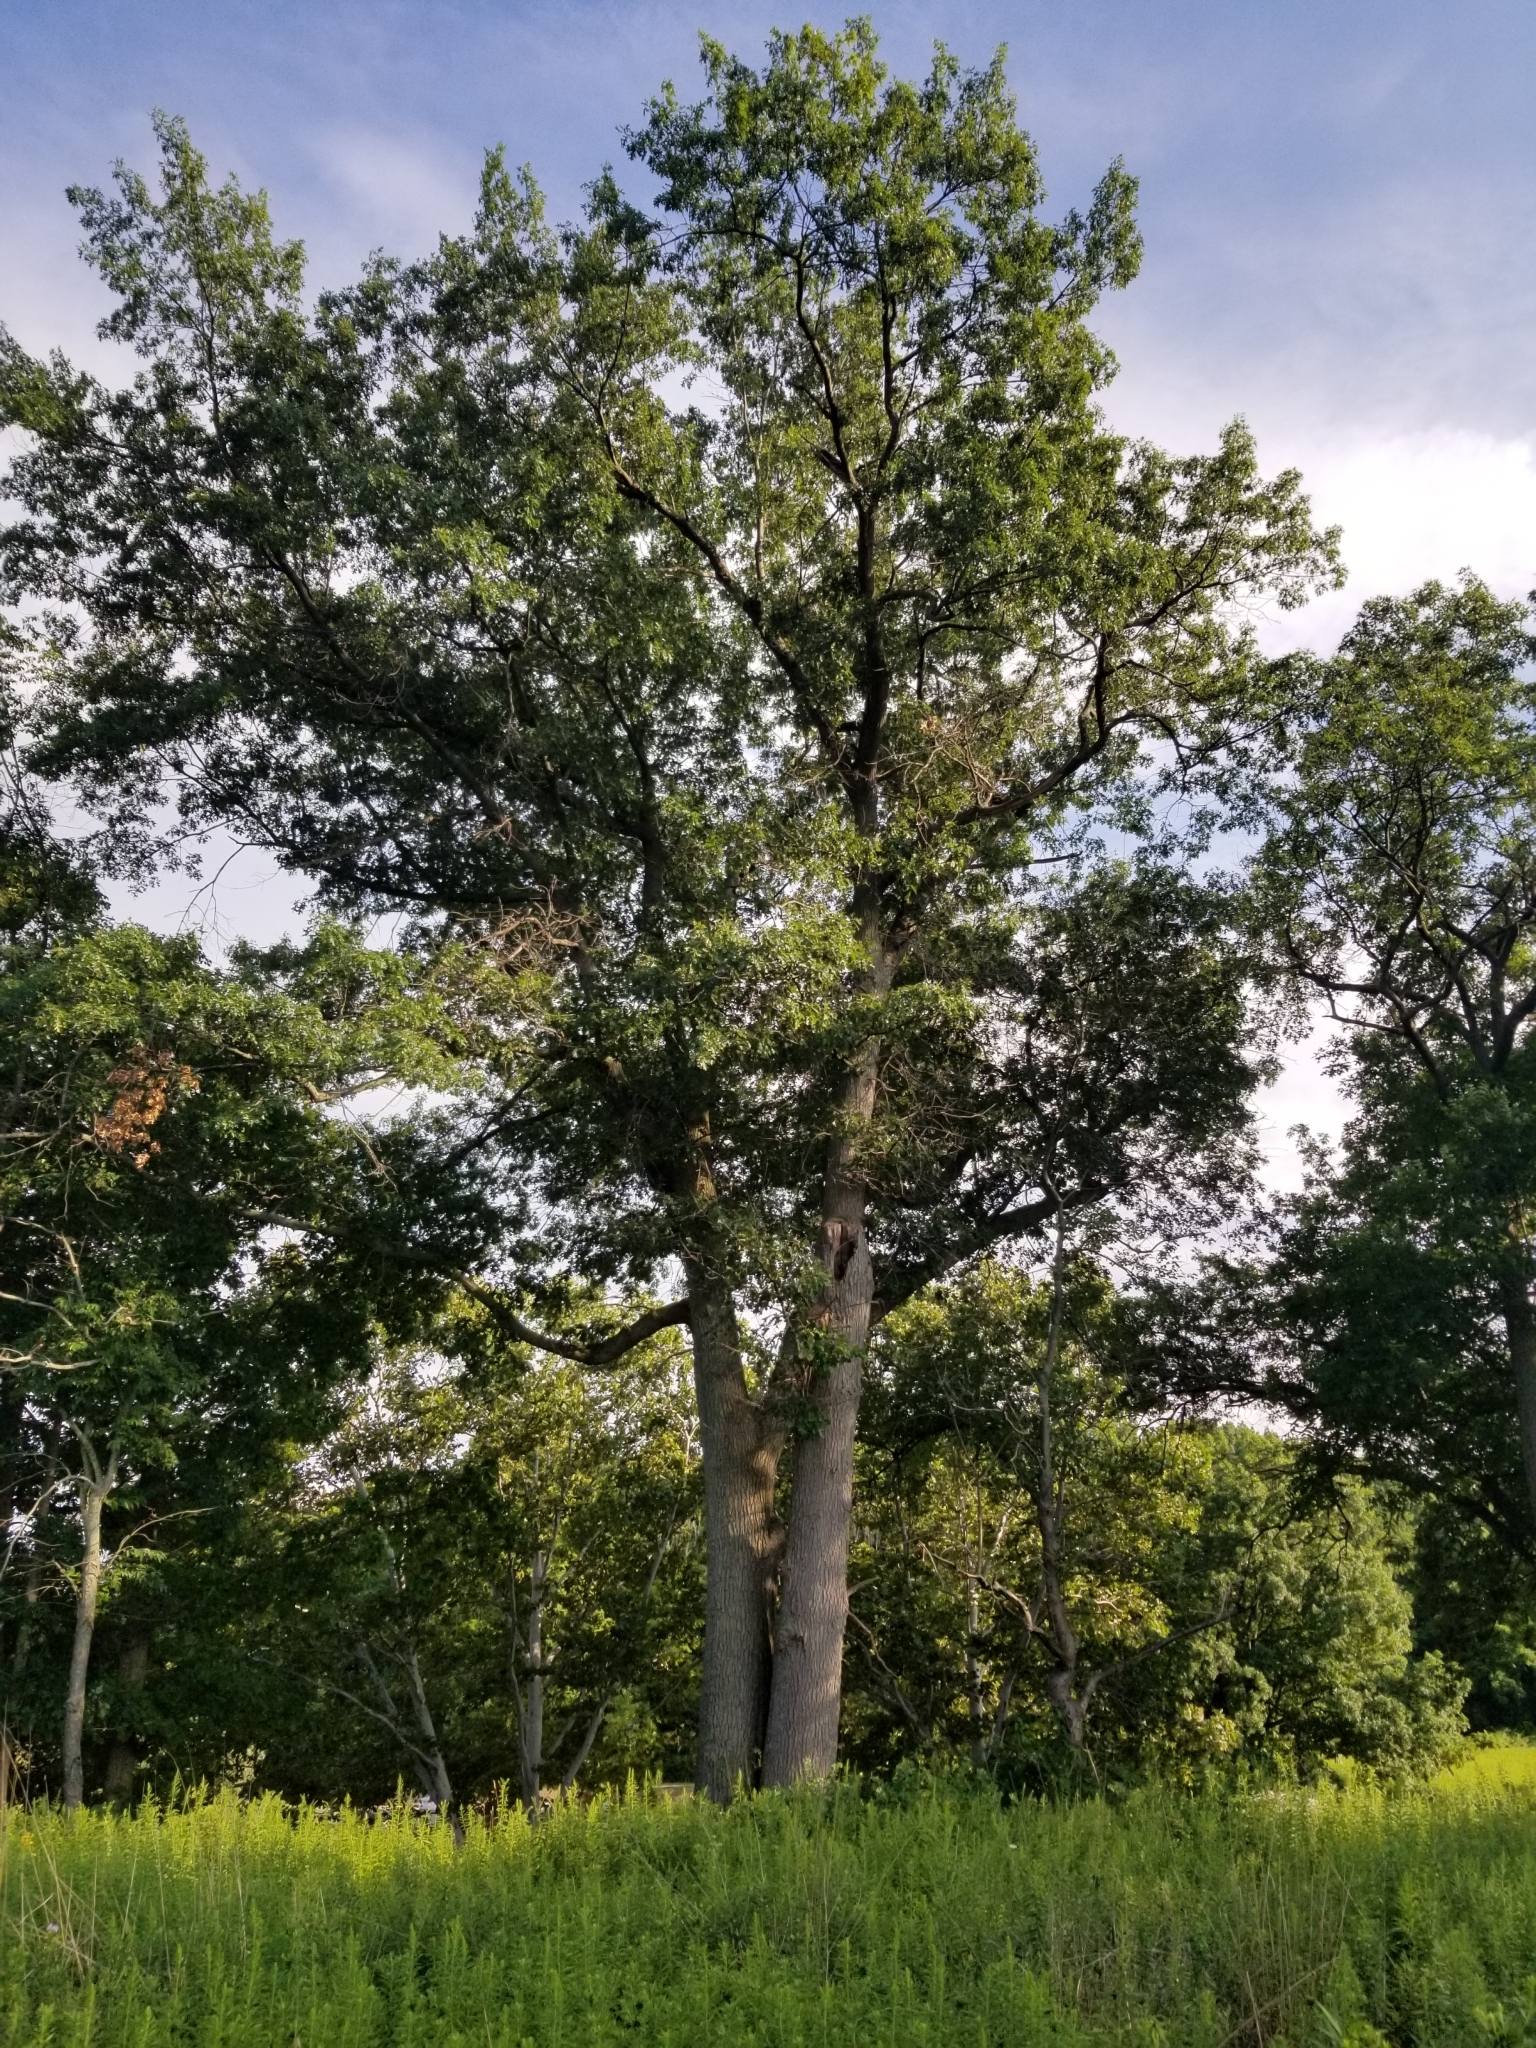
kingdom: Plantae
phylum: Tracheophyta
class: Magnoliopsida
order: Fagales
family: Fagaceae
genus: Quercus
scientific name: Quercus velutina
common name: Black oak
